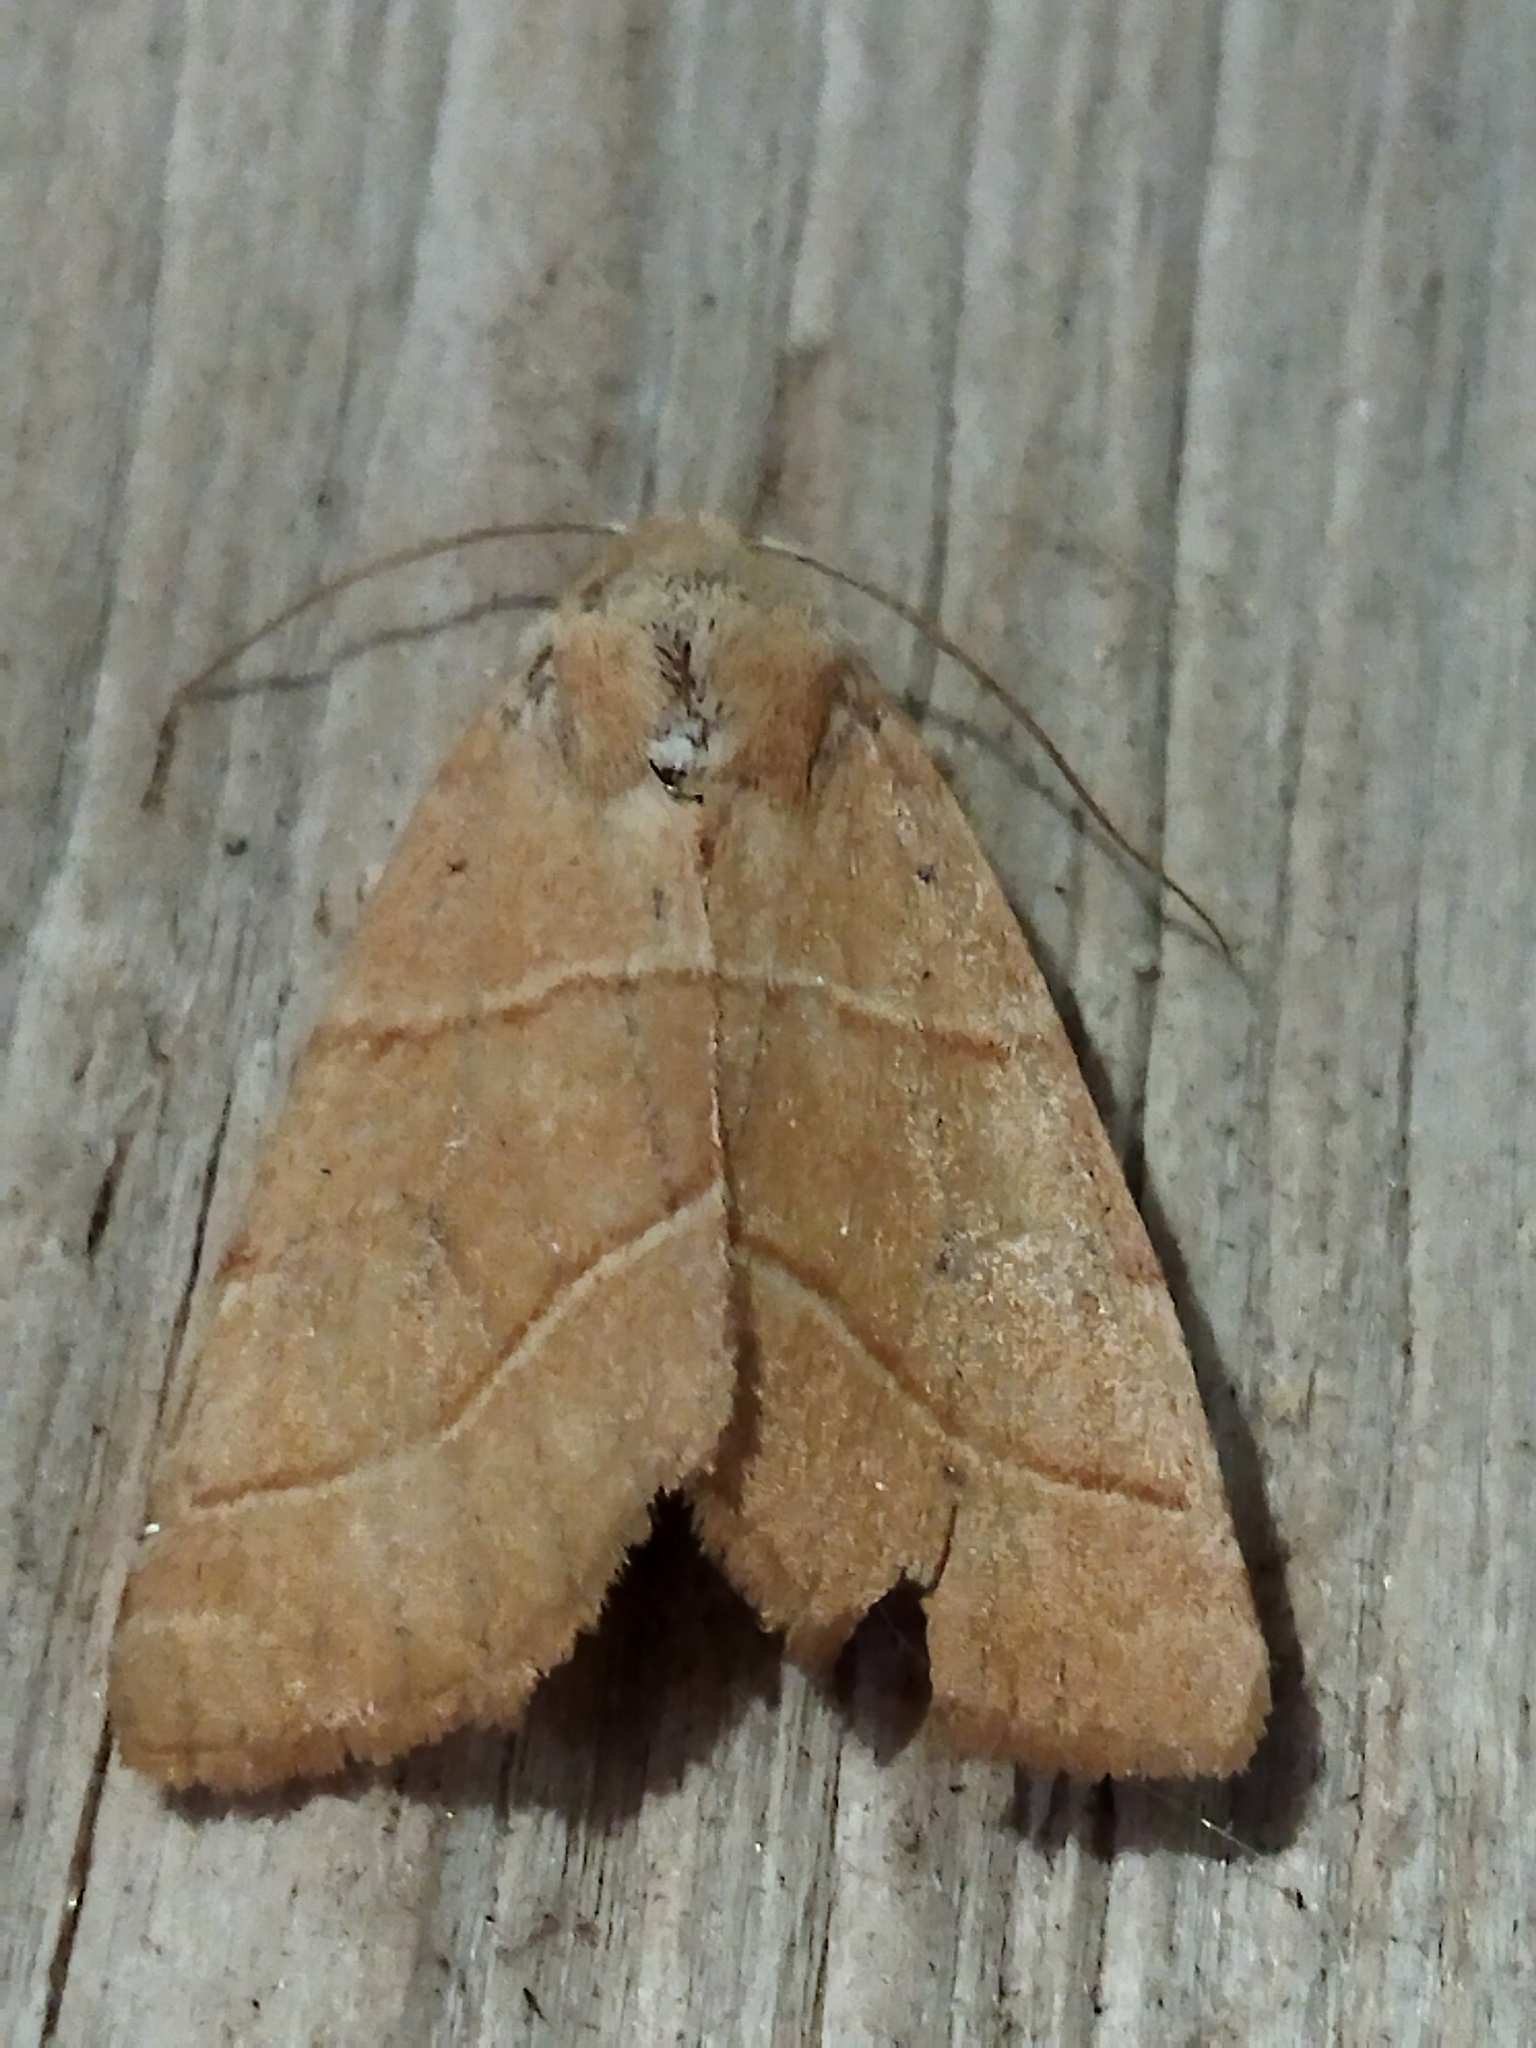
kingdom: Animalia
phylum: Arthropoda
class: Insecta
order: Lepidoptera
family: Noctuidae
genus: Atethmia
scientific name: Atethmia centrago
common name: Centre-barred sallow
